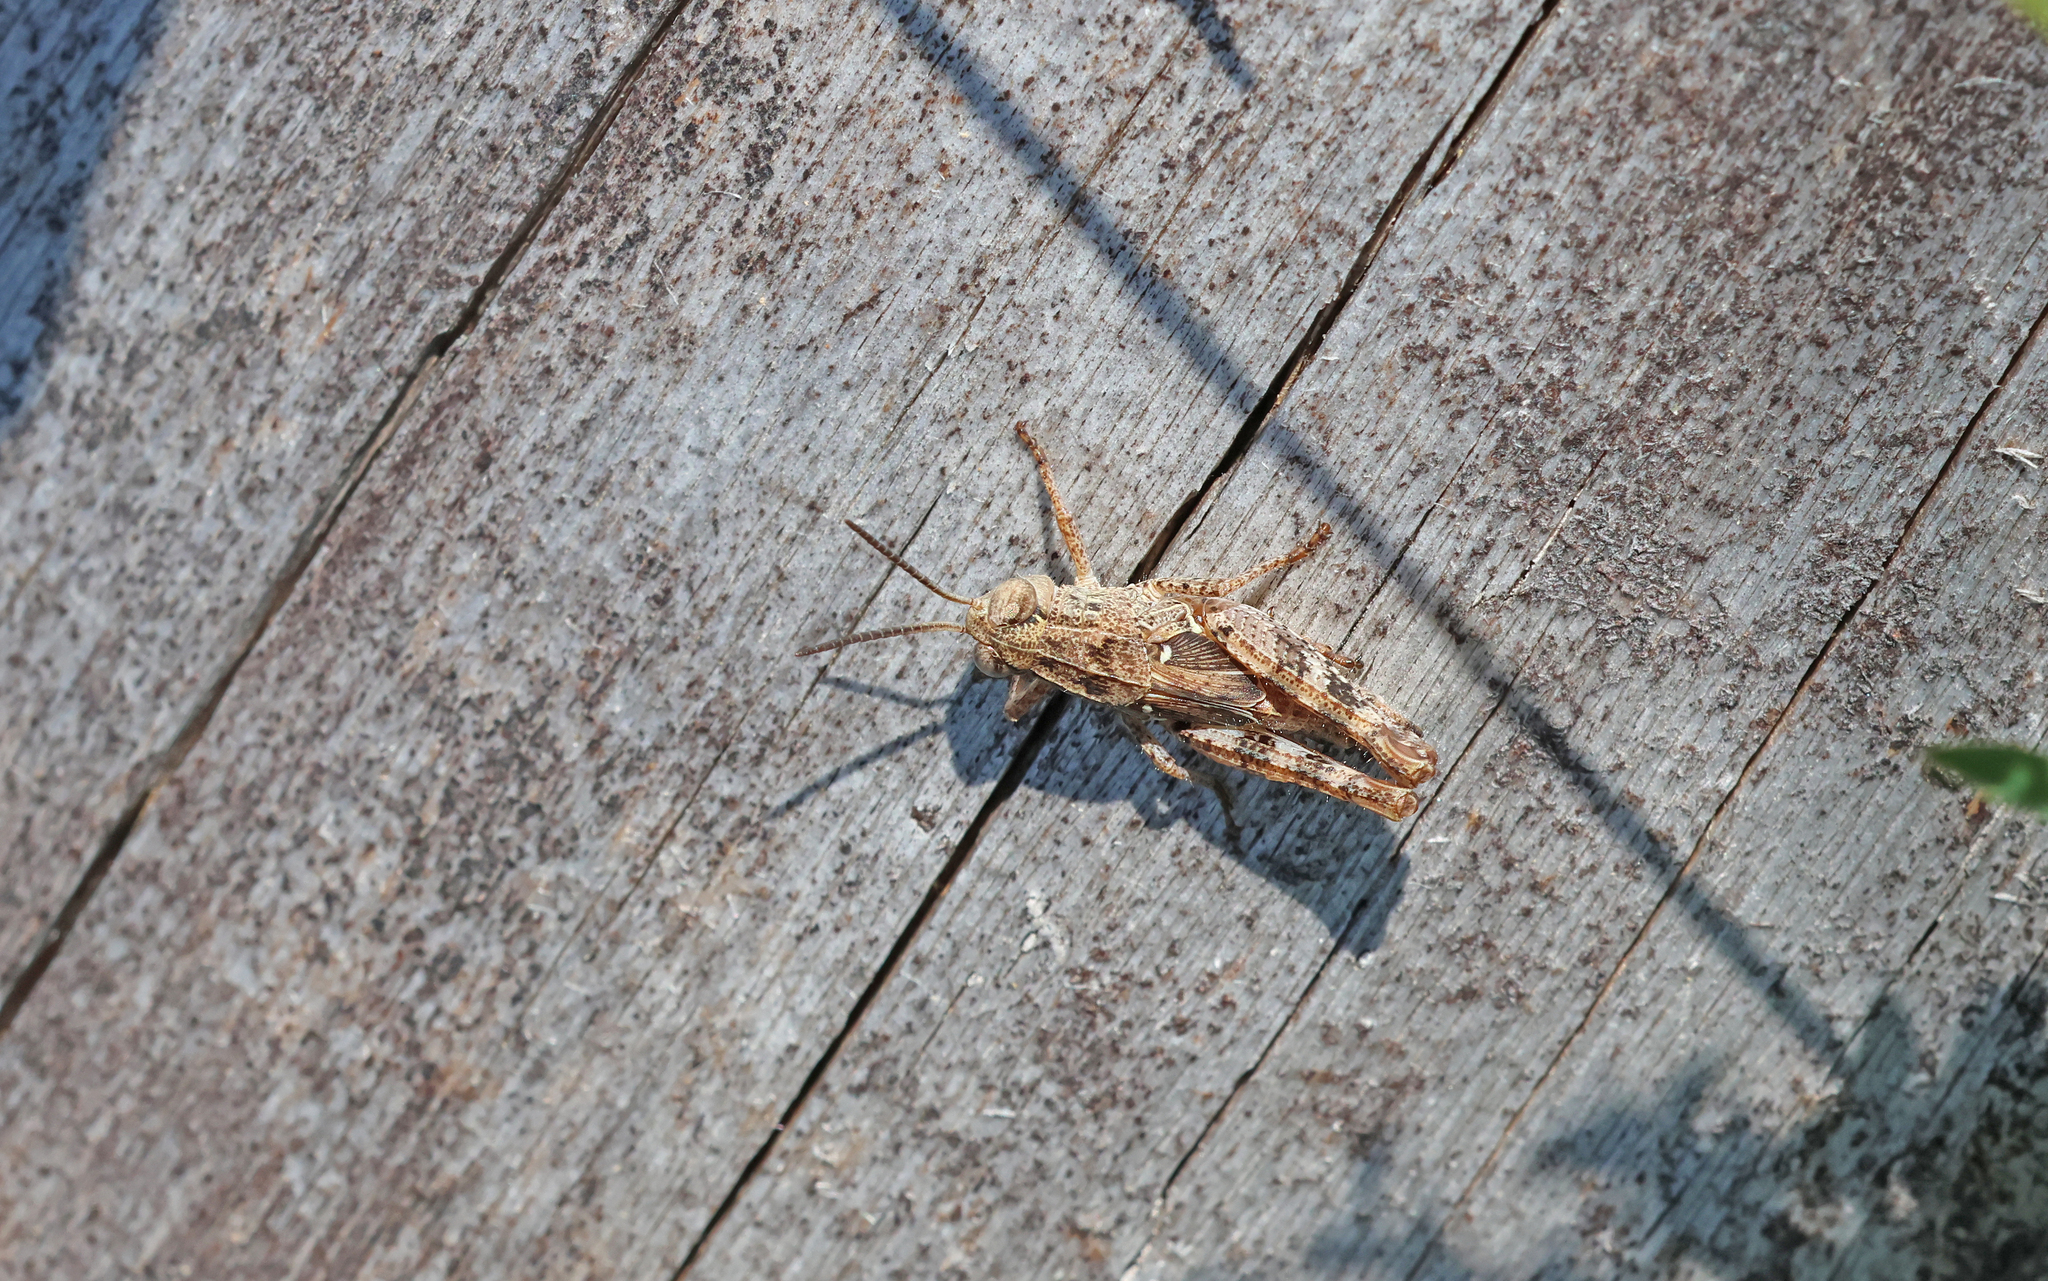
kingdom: Animalia
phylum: Arthropoda
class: Insecta
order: Orthoptera
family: Acrididae
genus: Calliptamus
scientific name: Calliptamus italicus
